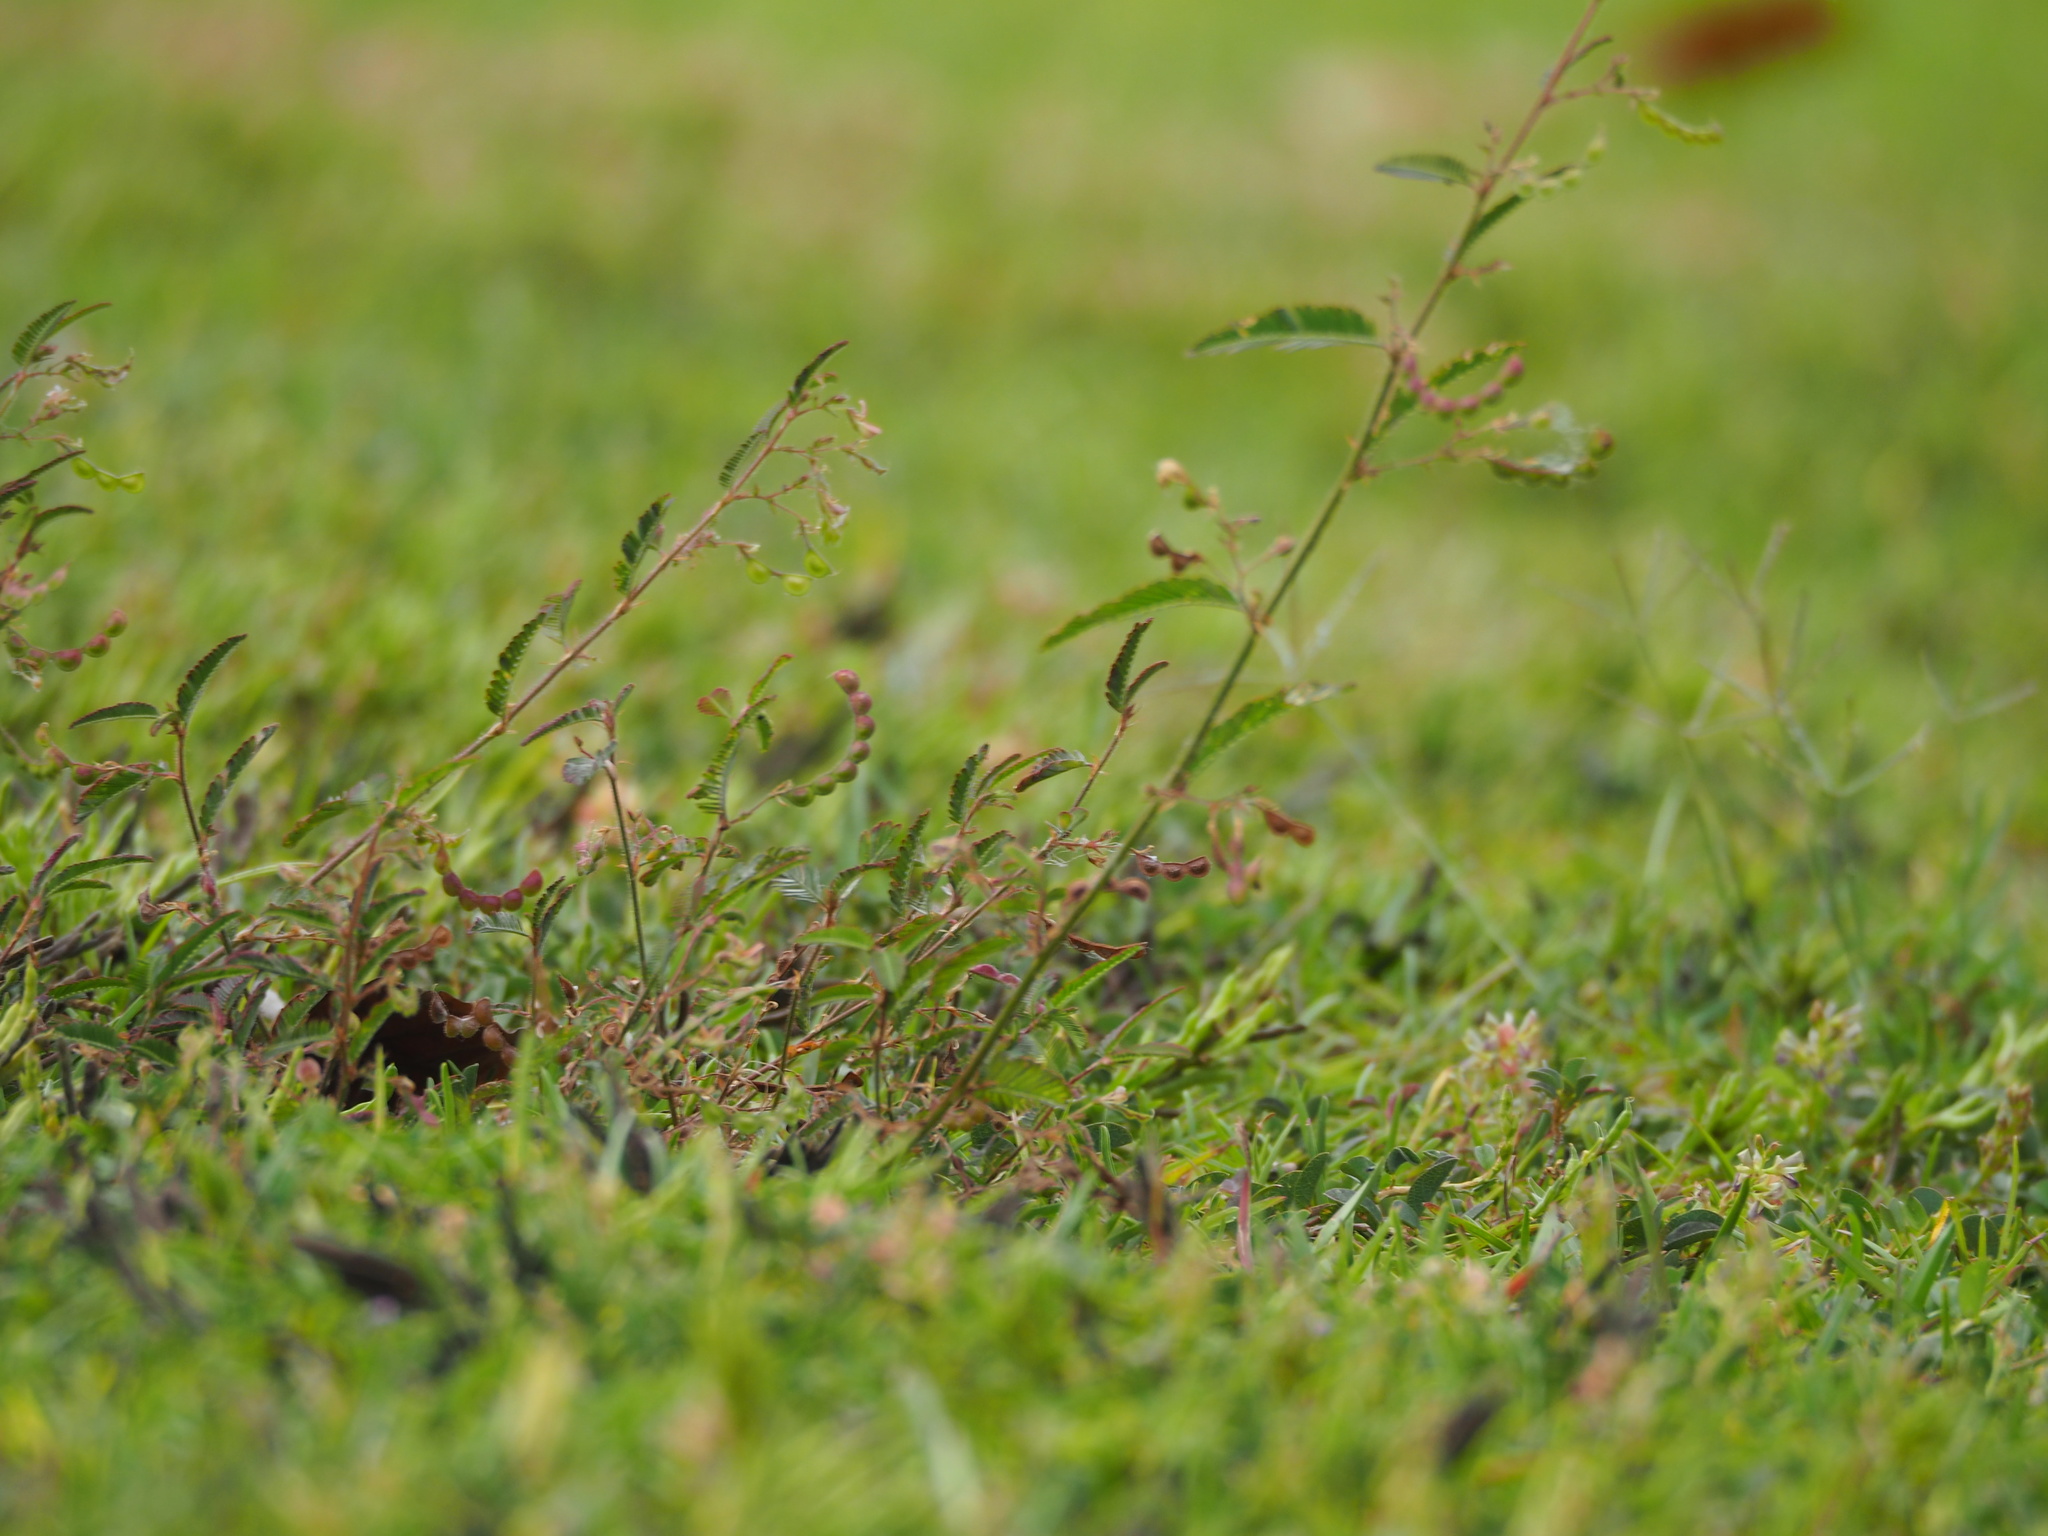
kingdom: Plantae
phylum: Tracheophyta
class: Magnoliopsida
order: Fabales
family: Fabaceae
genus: Aeschynomene
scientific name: Aeschynomene americana
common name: Joint-vetch
